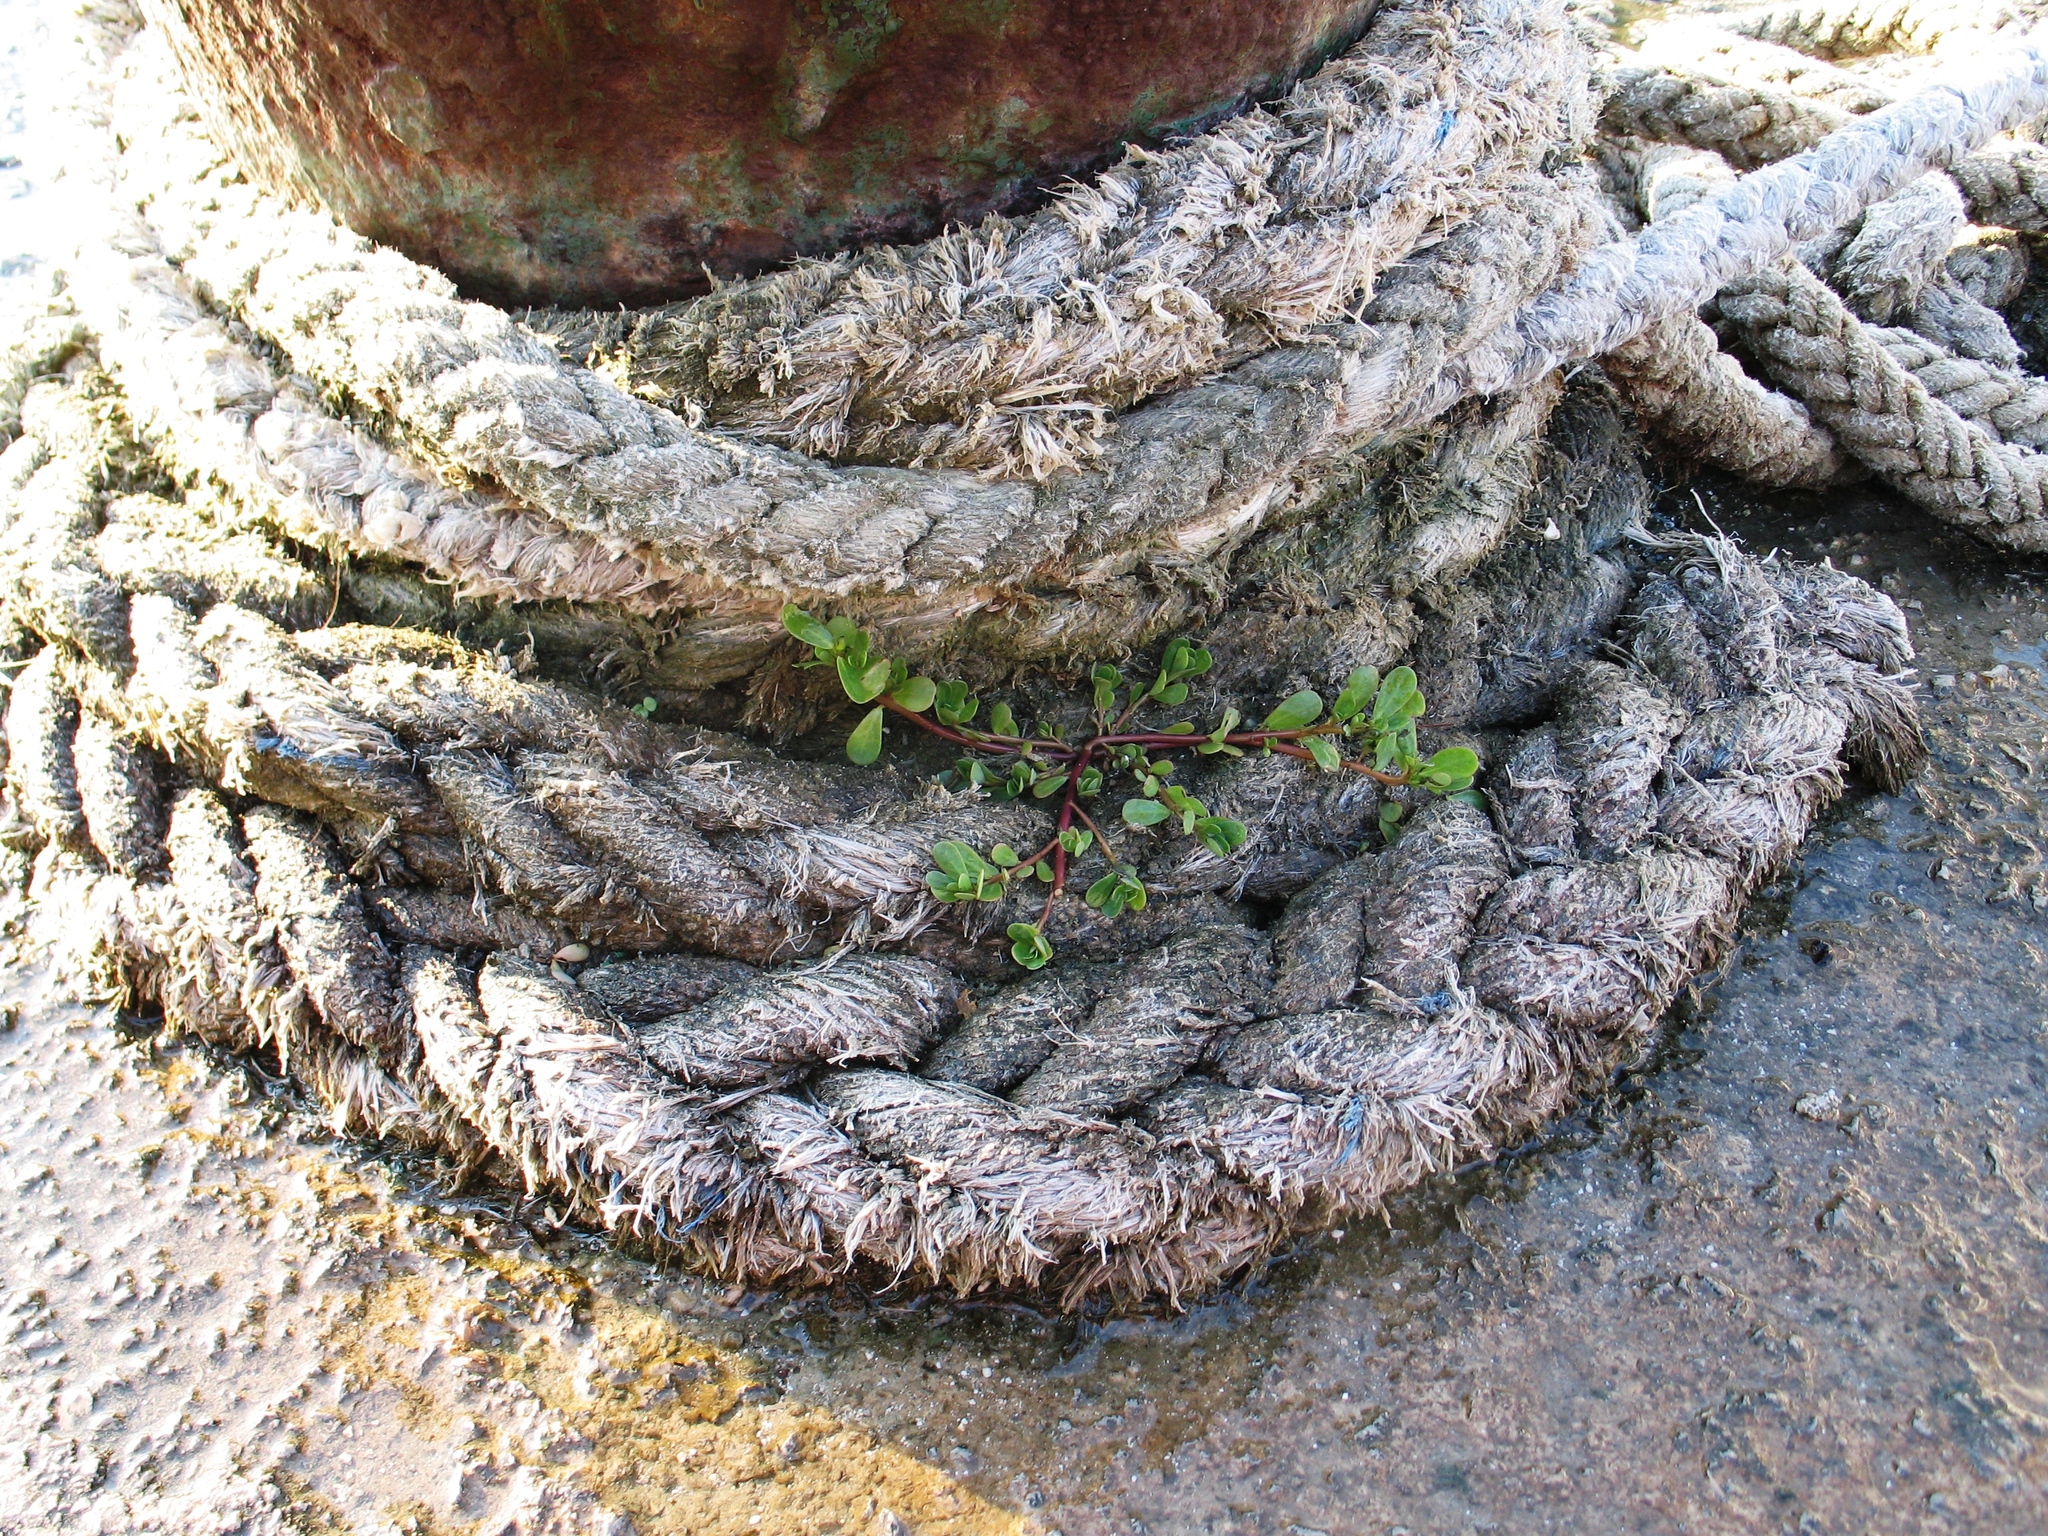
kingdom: Plantae
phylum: Tracheophyta
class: Magnoliopsida
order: Caryophyllales
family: Portulacaceae
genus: Portulaca
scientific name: Portulaca oleracea
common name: Common purslane
